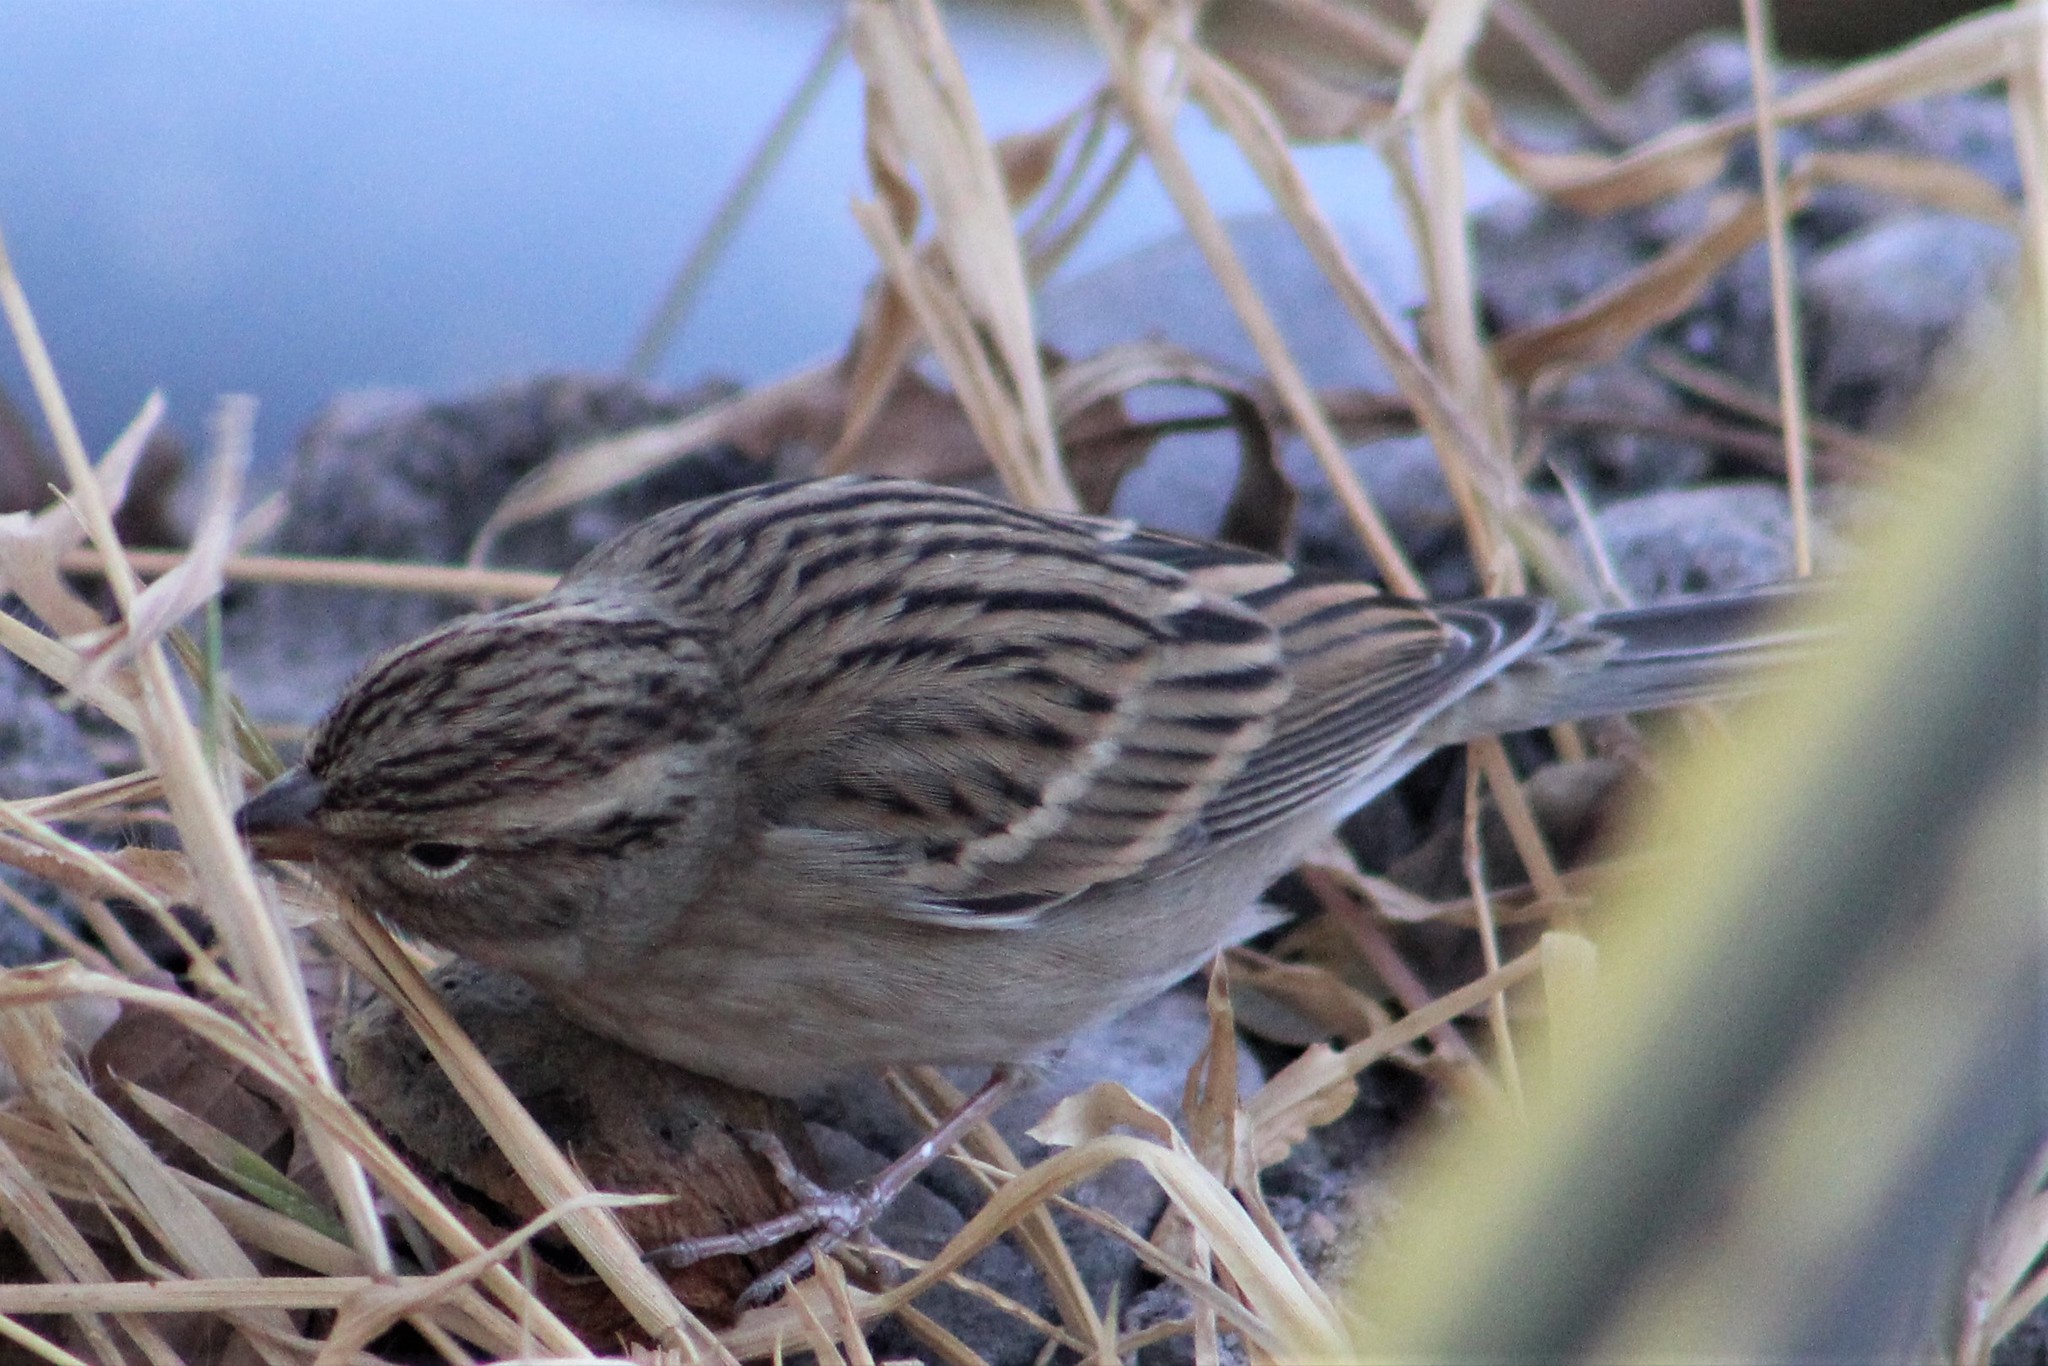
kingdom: Animalia
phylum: Chordata
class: Aves
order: Passeriformes
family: Passerellidae
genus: Spizella
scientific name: Spizella passerina
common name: Chipping sparrow
